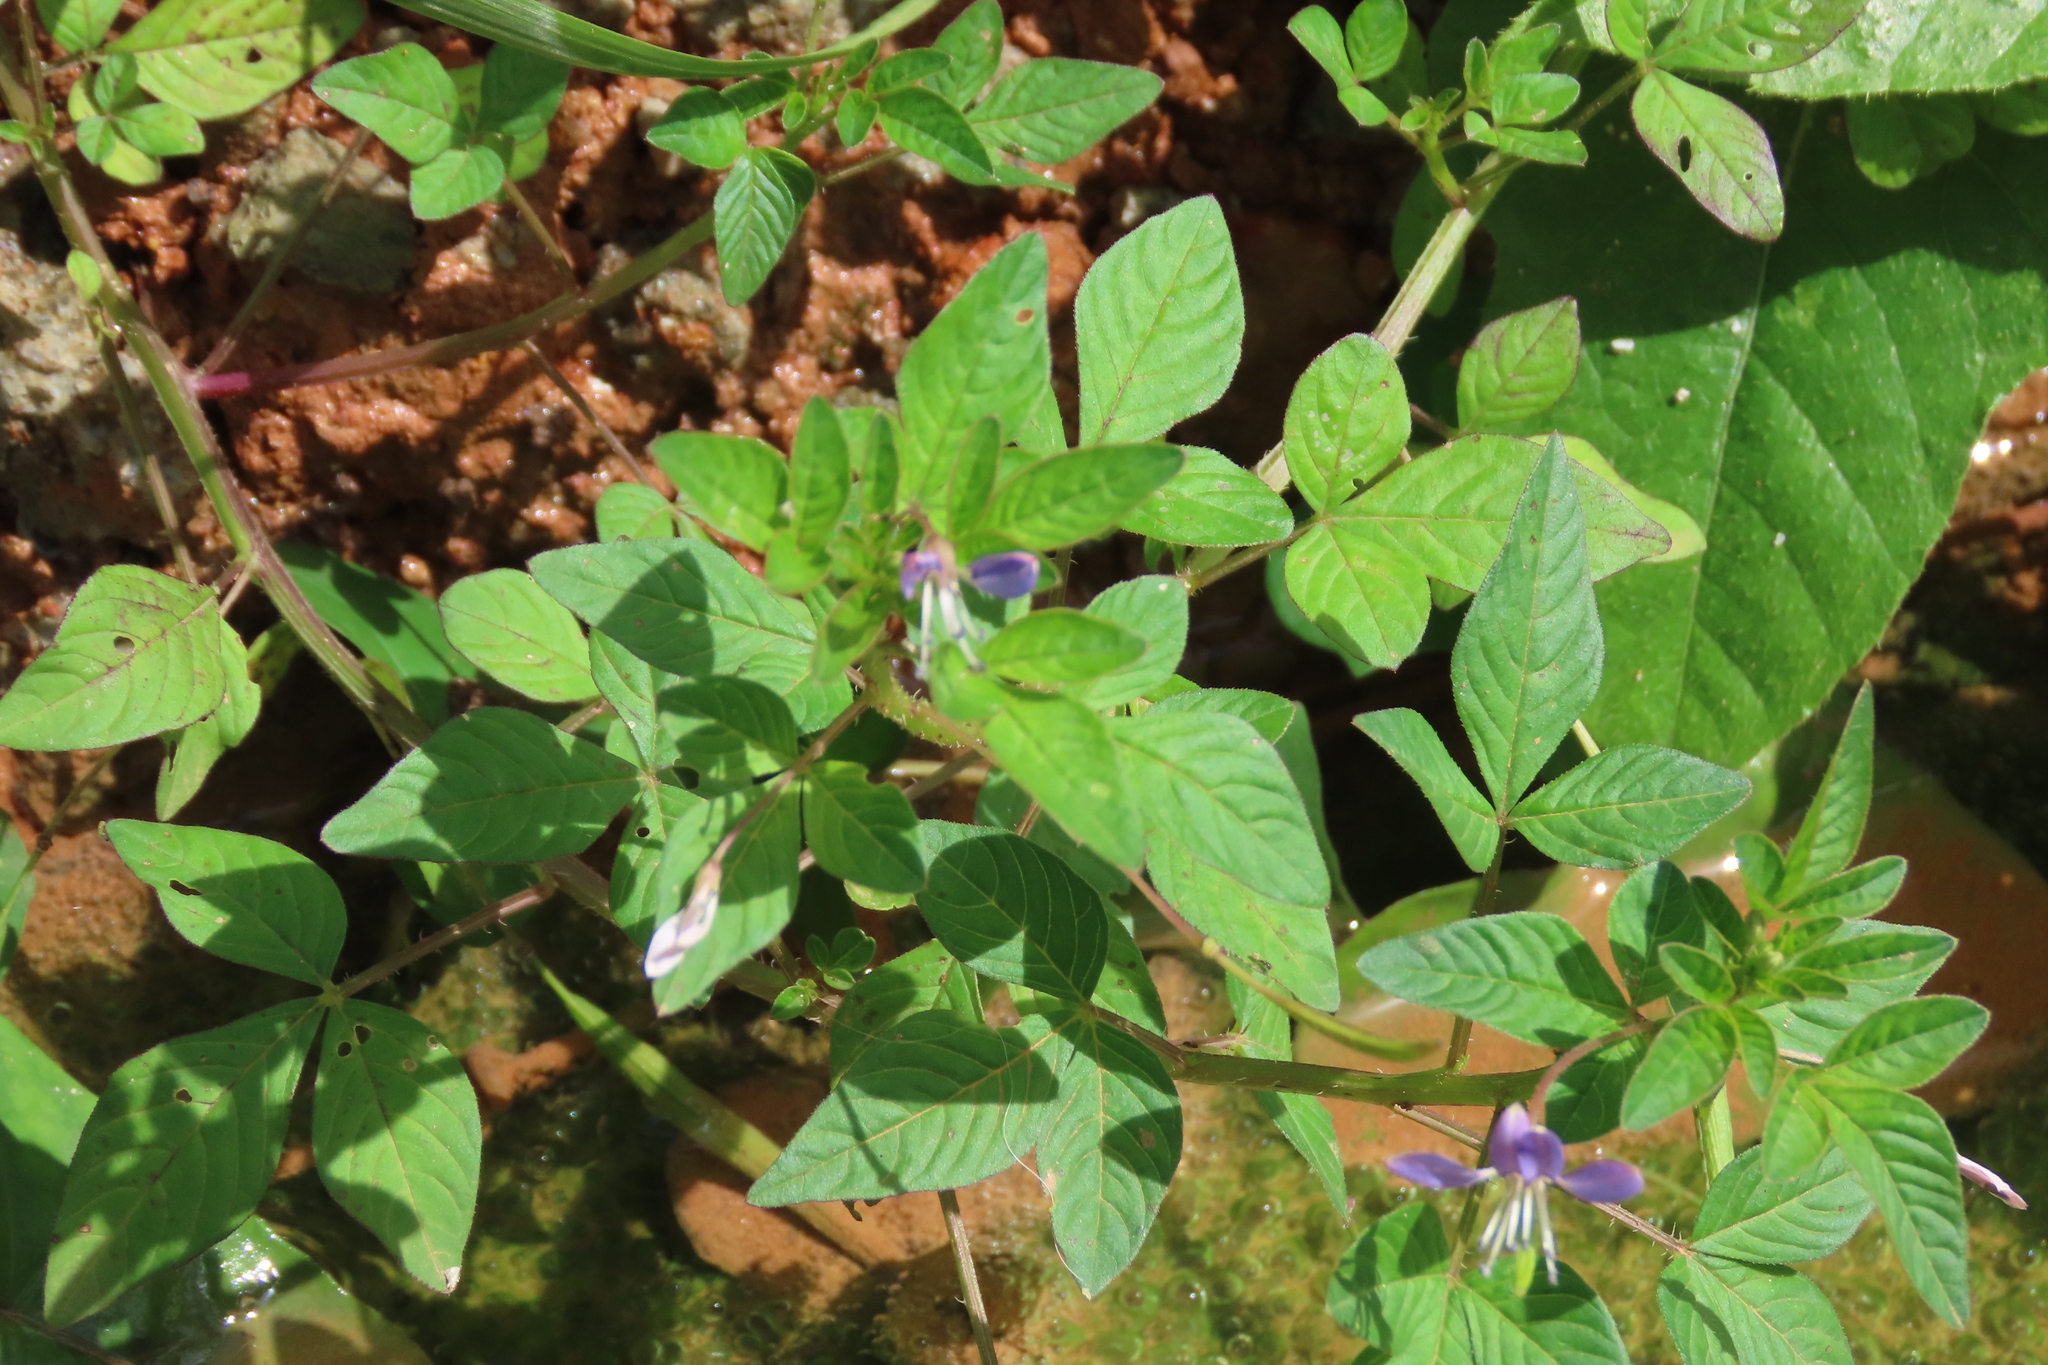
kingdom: Plantae
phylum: Tracheophyta
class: Magnoliopsida
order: Brassicales
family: Cleomaceae
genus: Sieruela
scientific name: Sieruela rutidosperma
